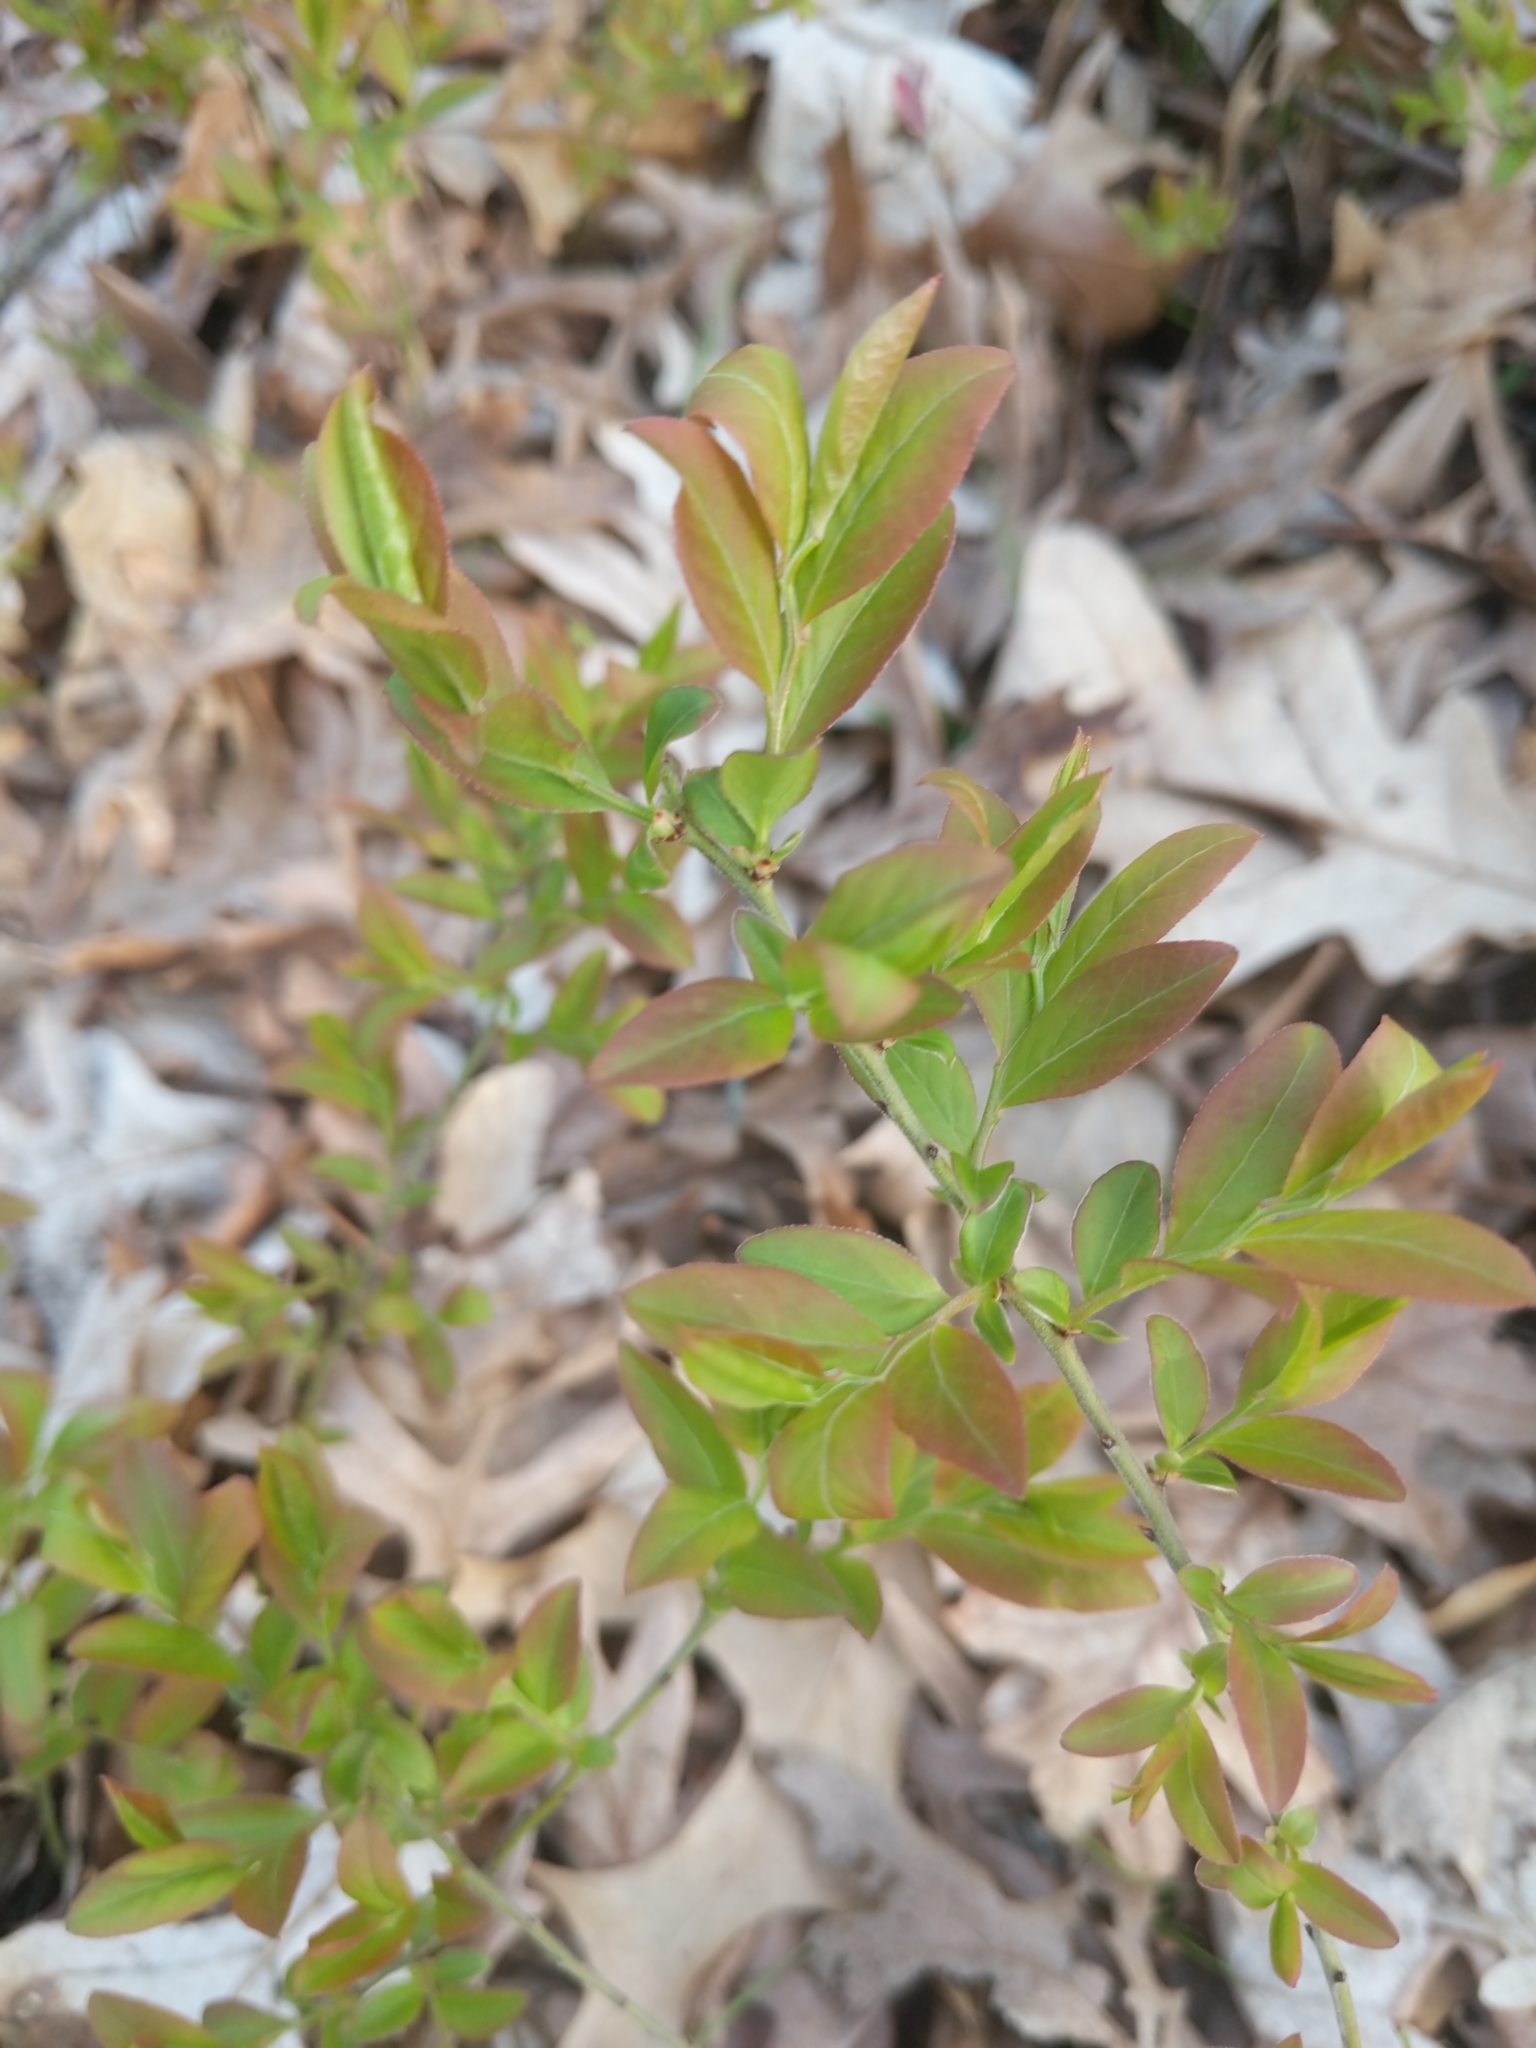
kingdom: Plantae
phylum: Tracheophyta
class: Magnoliopsida
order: Ericales
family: Ericaceae
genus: Vaccinium
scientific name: Vaccinium angustifolium
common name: Early lowbush blueberry
